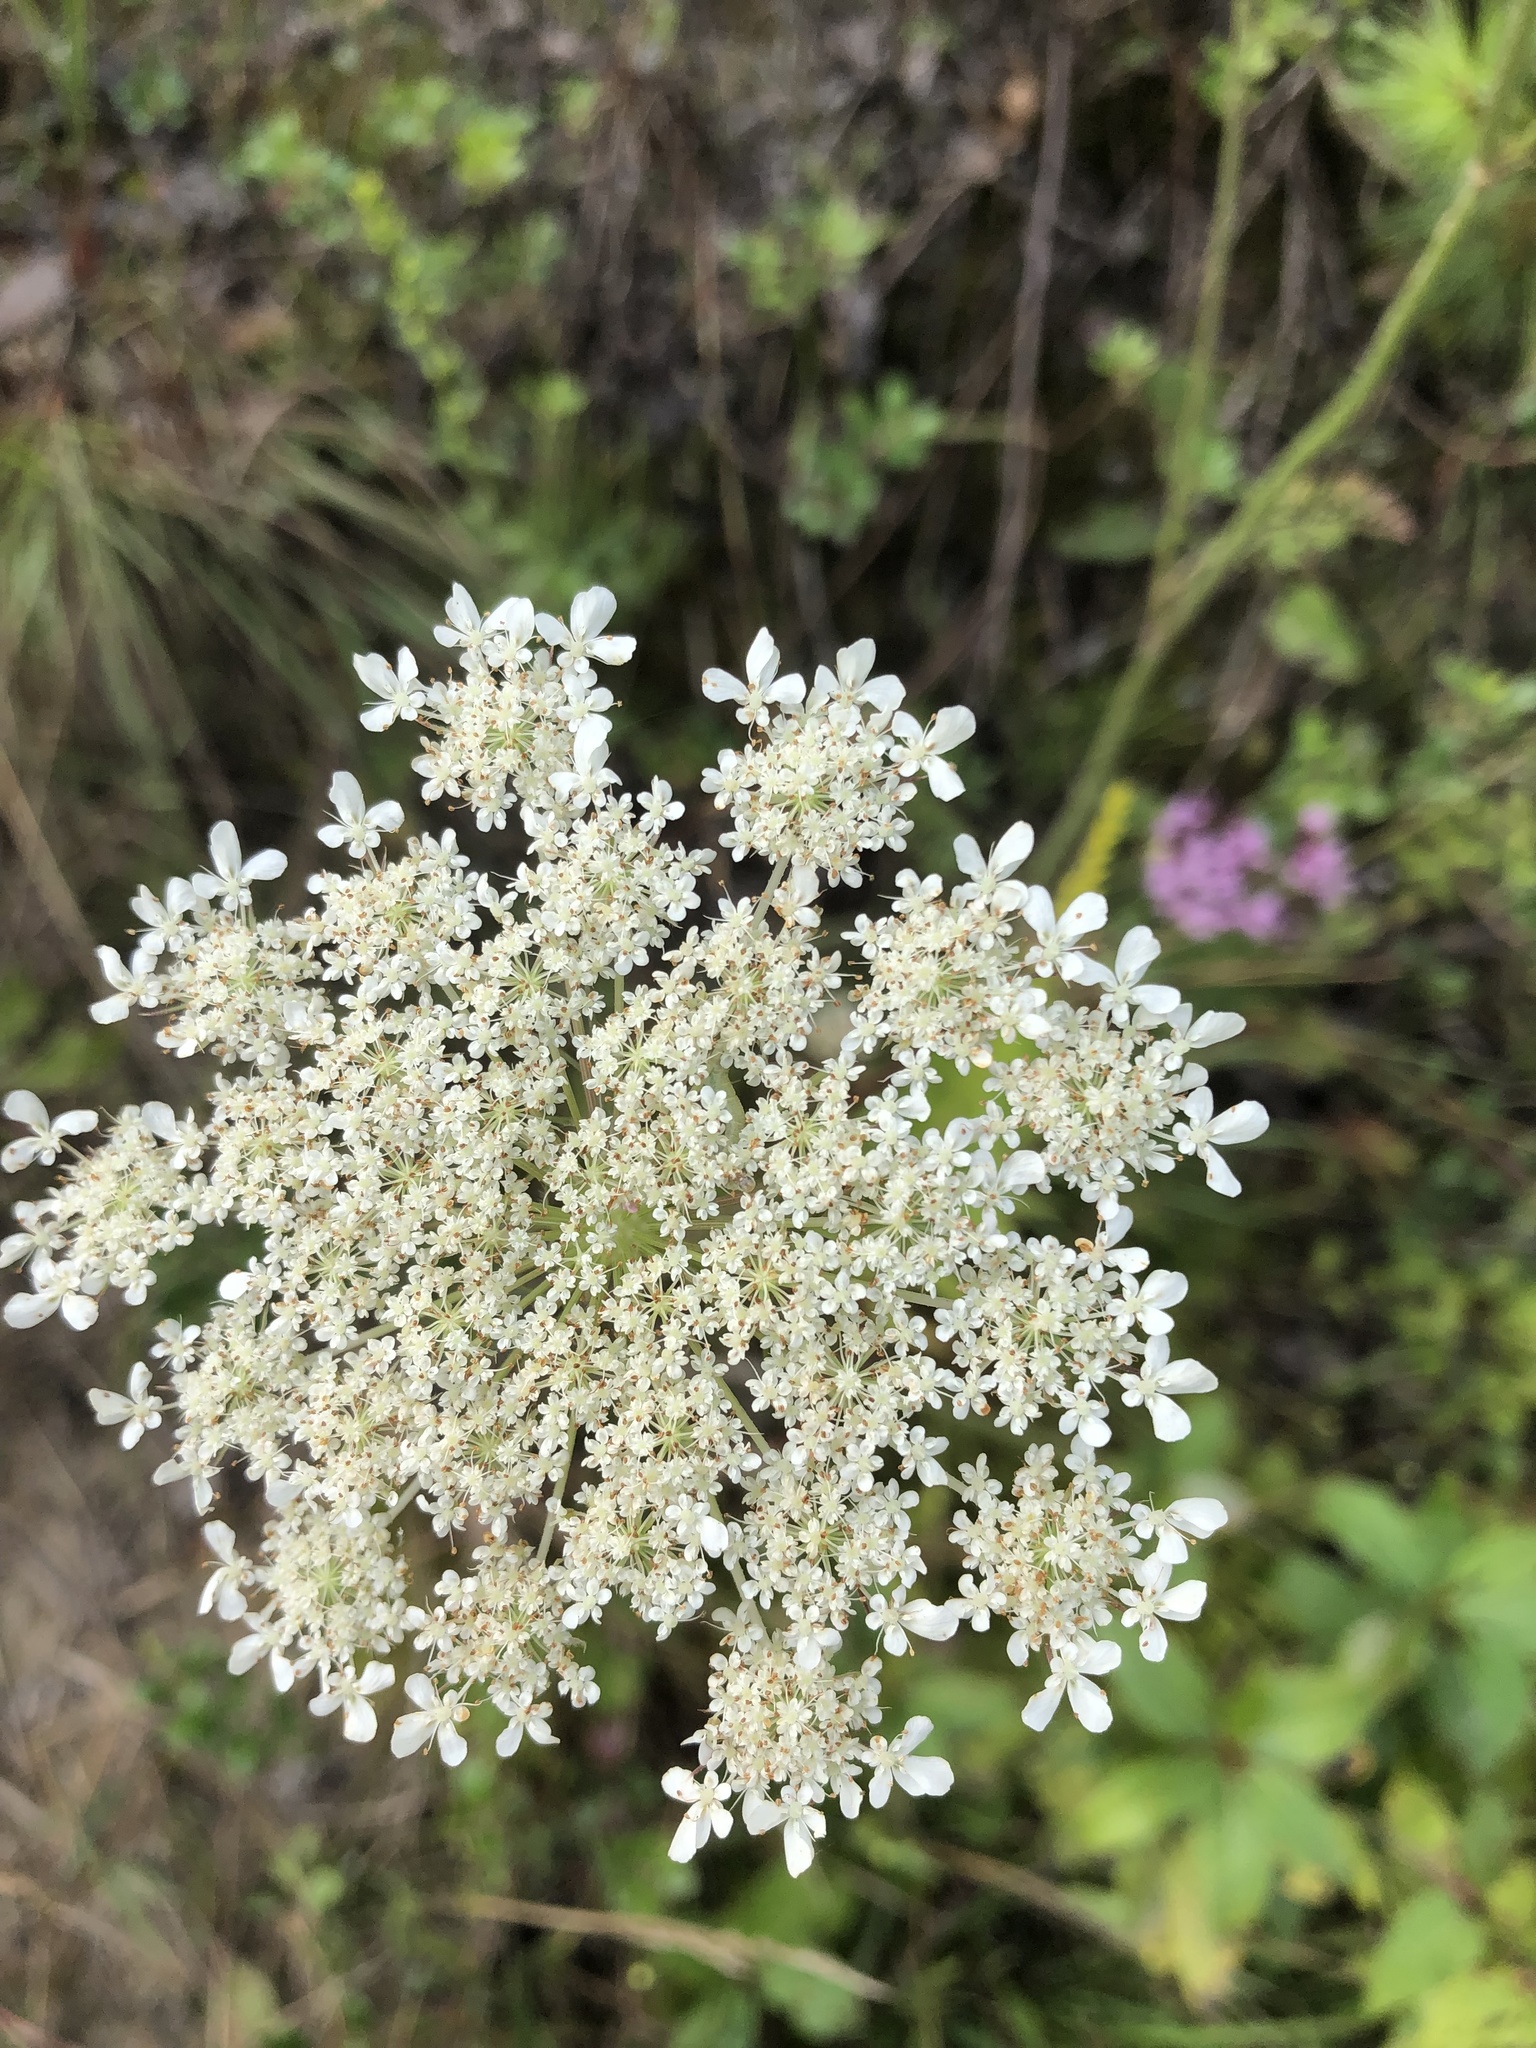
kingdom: Plantae
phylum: Tracheophyta
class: Magnoliopsida
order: Apiales
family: Apiaceae
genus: Daucus
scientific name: Daucus carota
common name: Wild carrot
